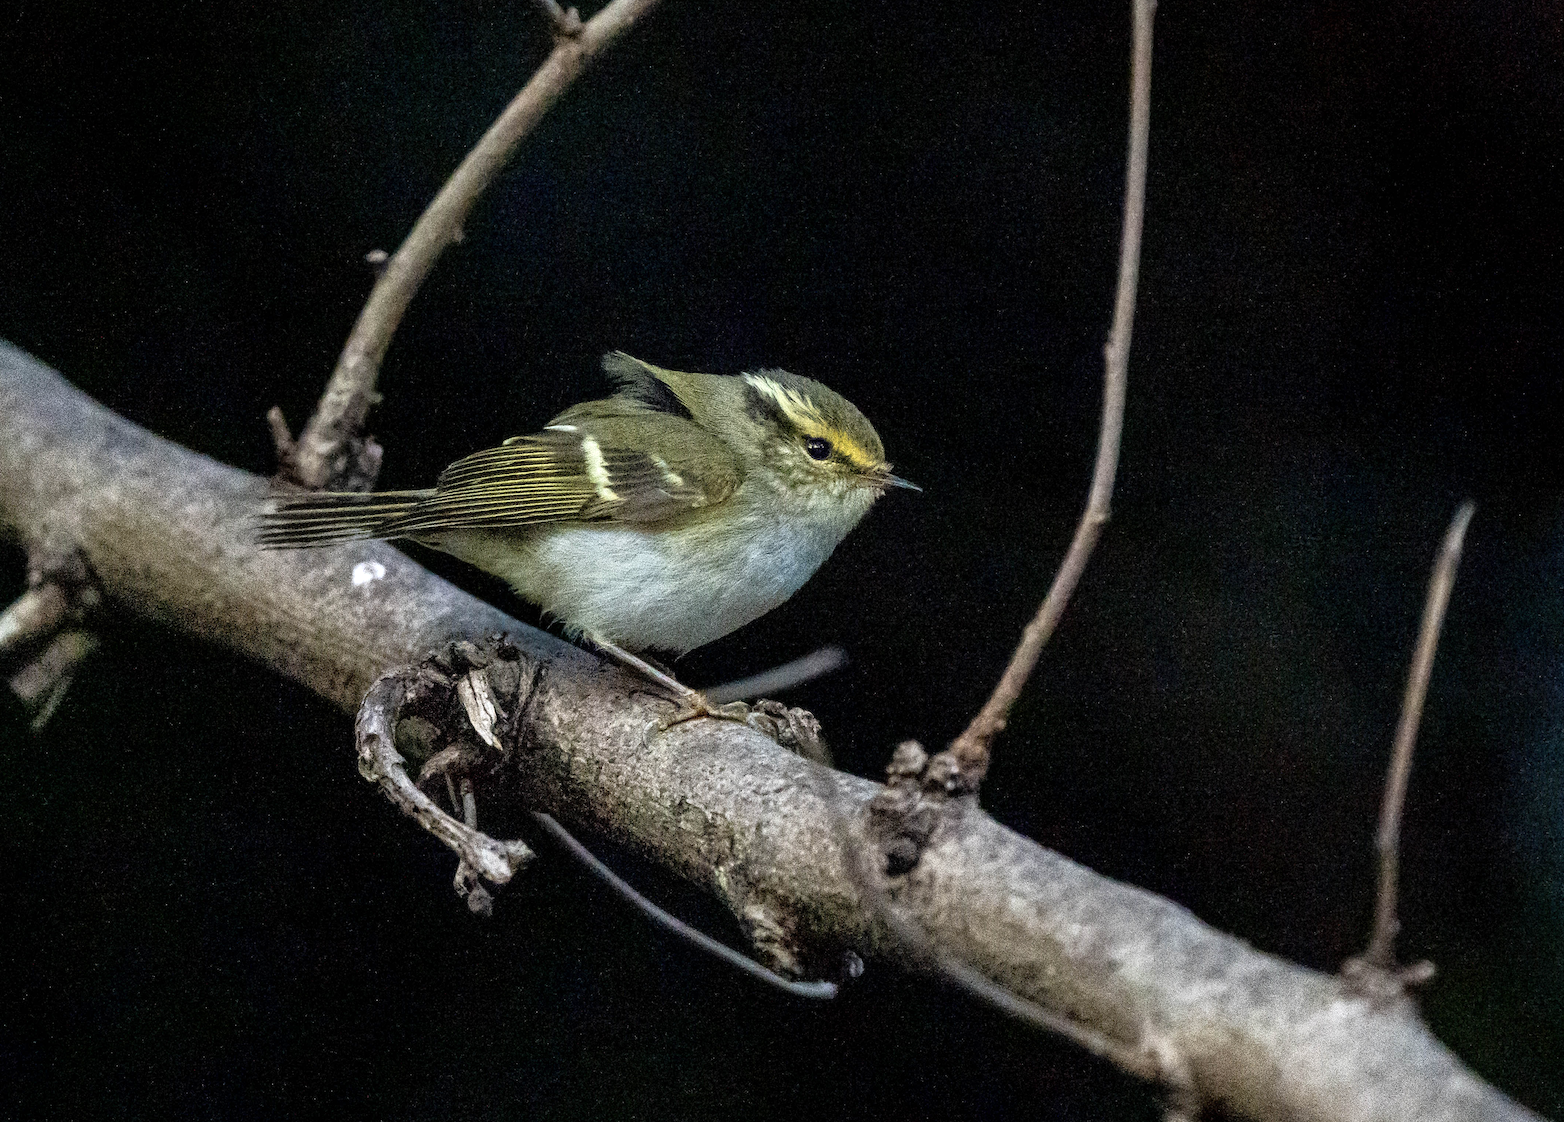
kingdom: Animalia
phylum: Chordata
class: Aves
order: Passeriformes
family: Phylloscopidae
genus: Phylloscopus
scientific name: Phylloscopus proregulus
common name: Pallas's leaf warbler
